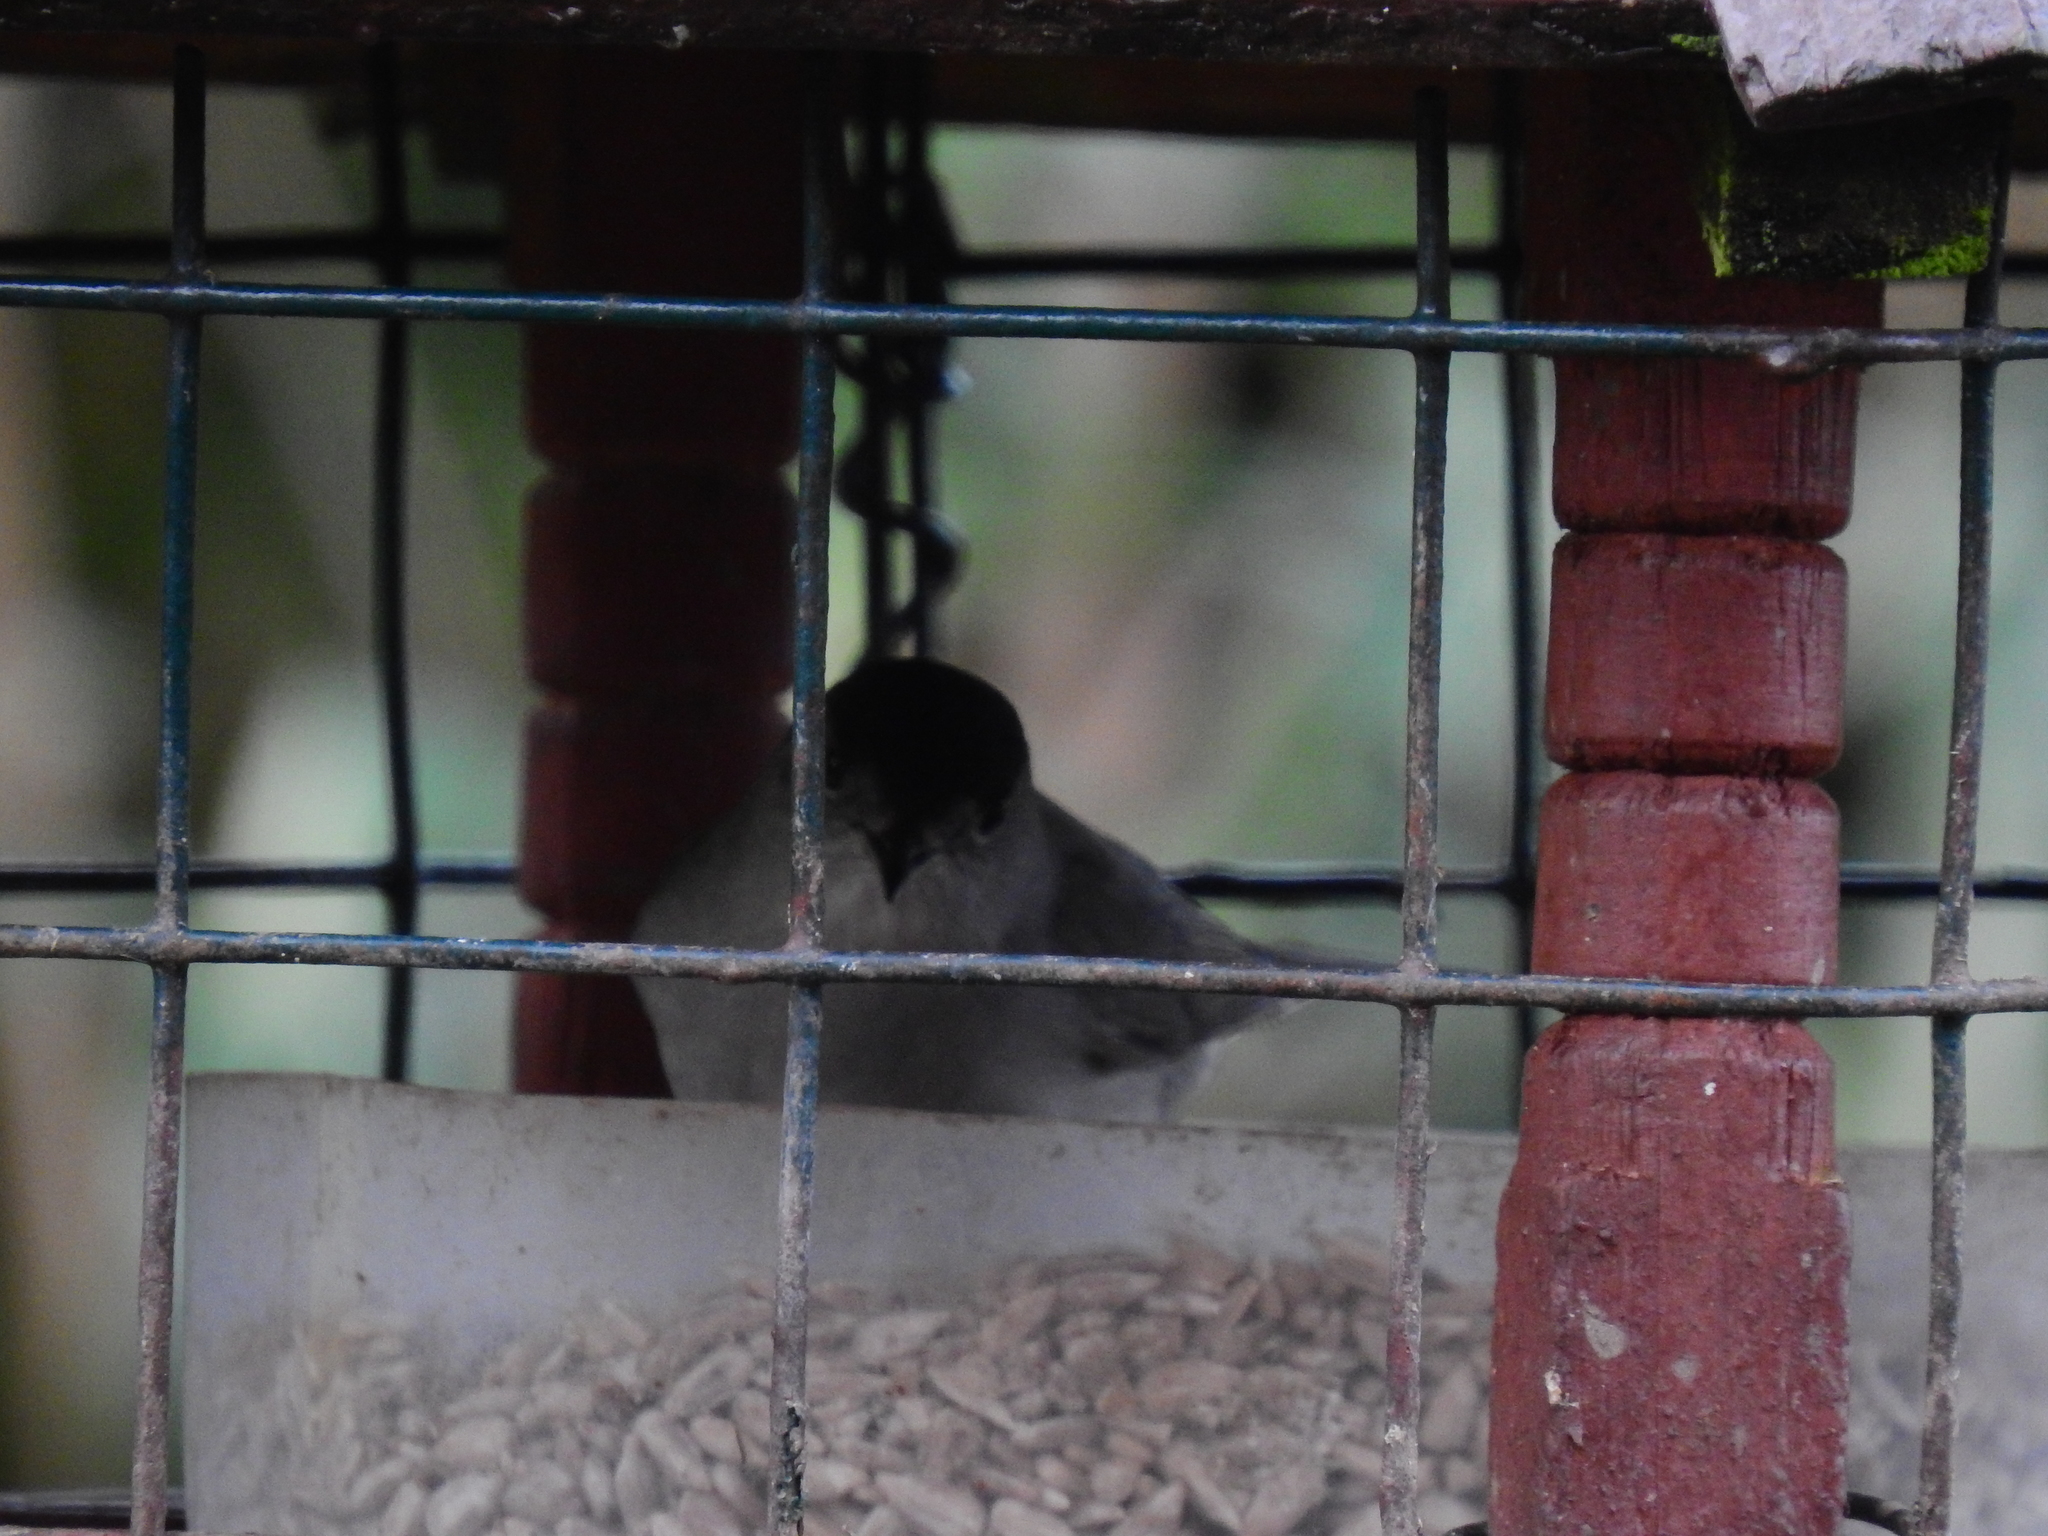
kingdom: Animalia
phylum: Chordata
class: Aves
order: Passeriformes
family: Sylviidae
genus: Sylvia
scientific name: Sylvia atricapilla
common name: Eurasian blackcap
